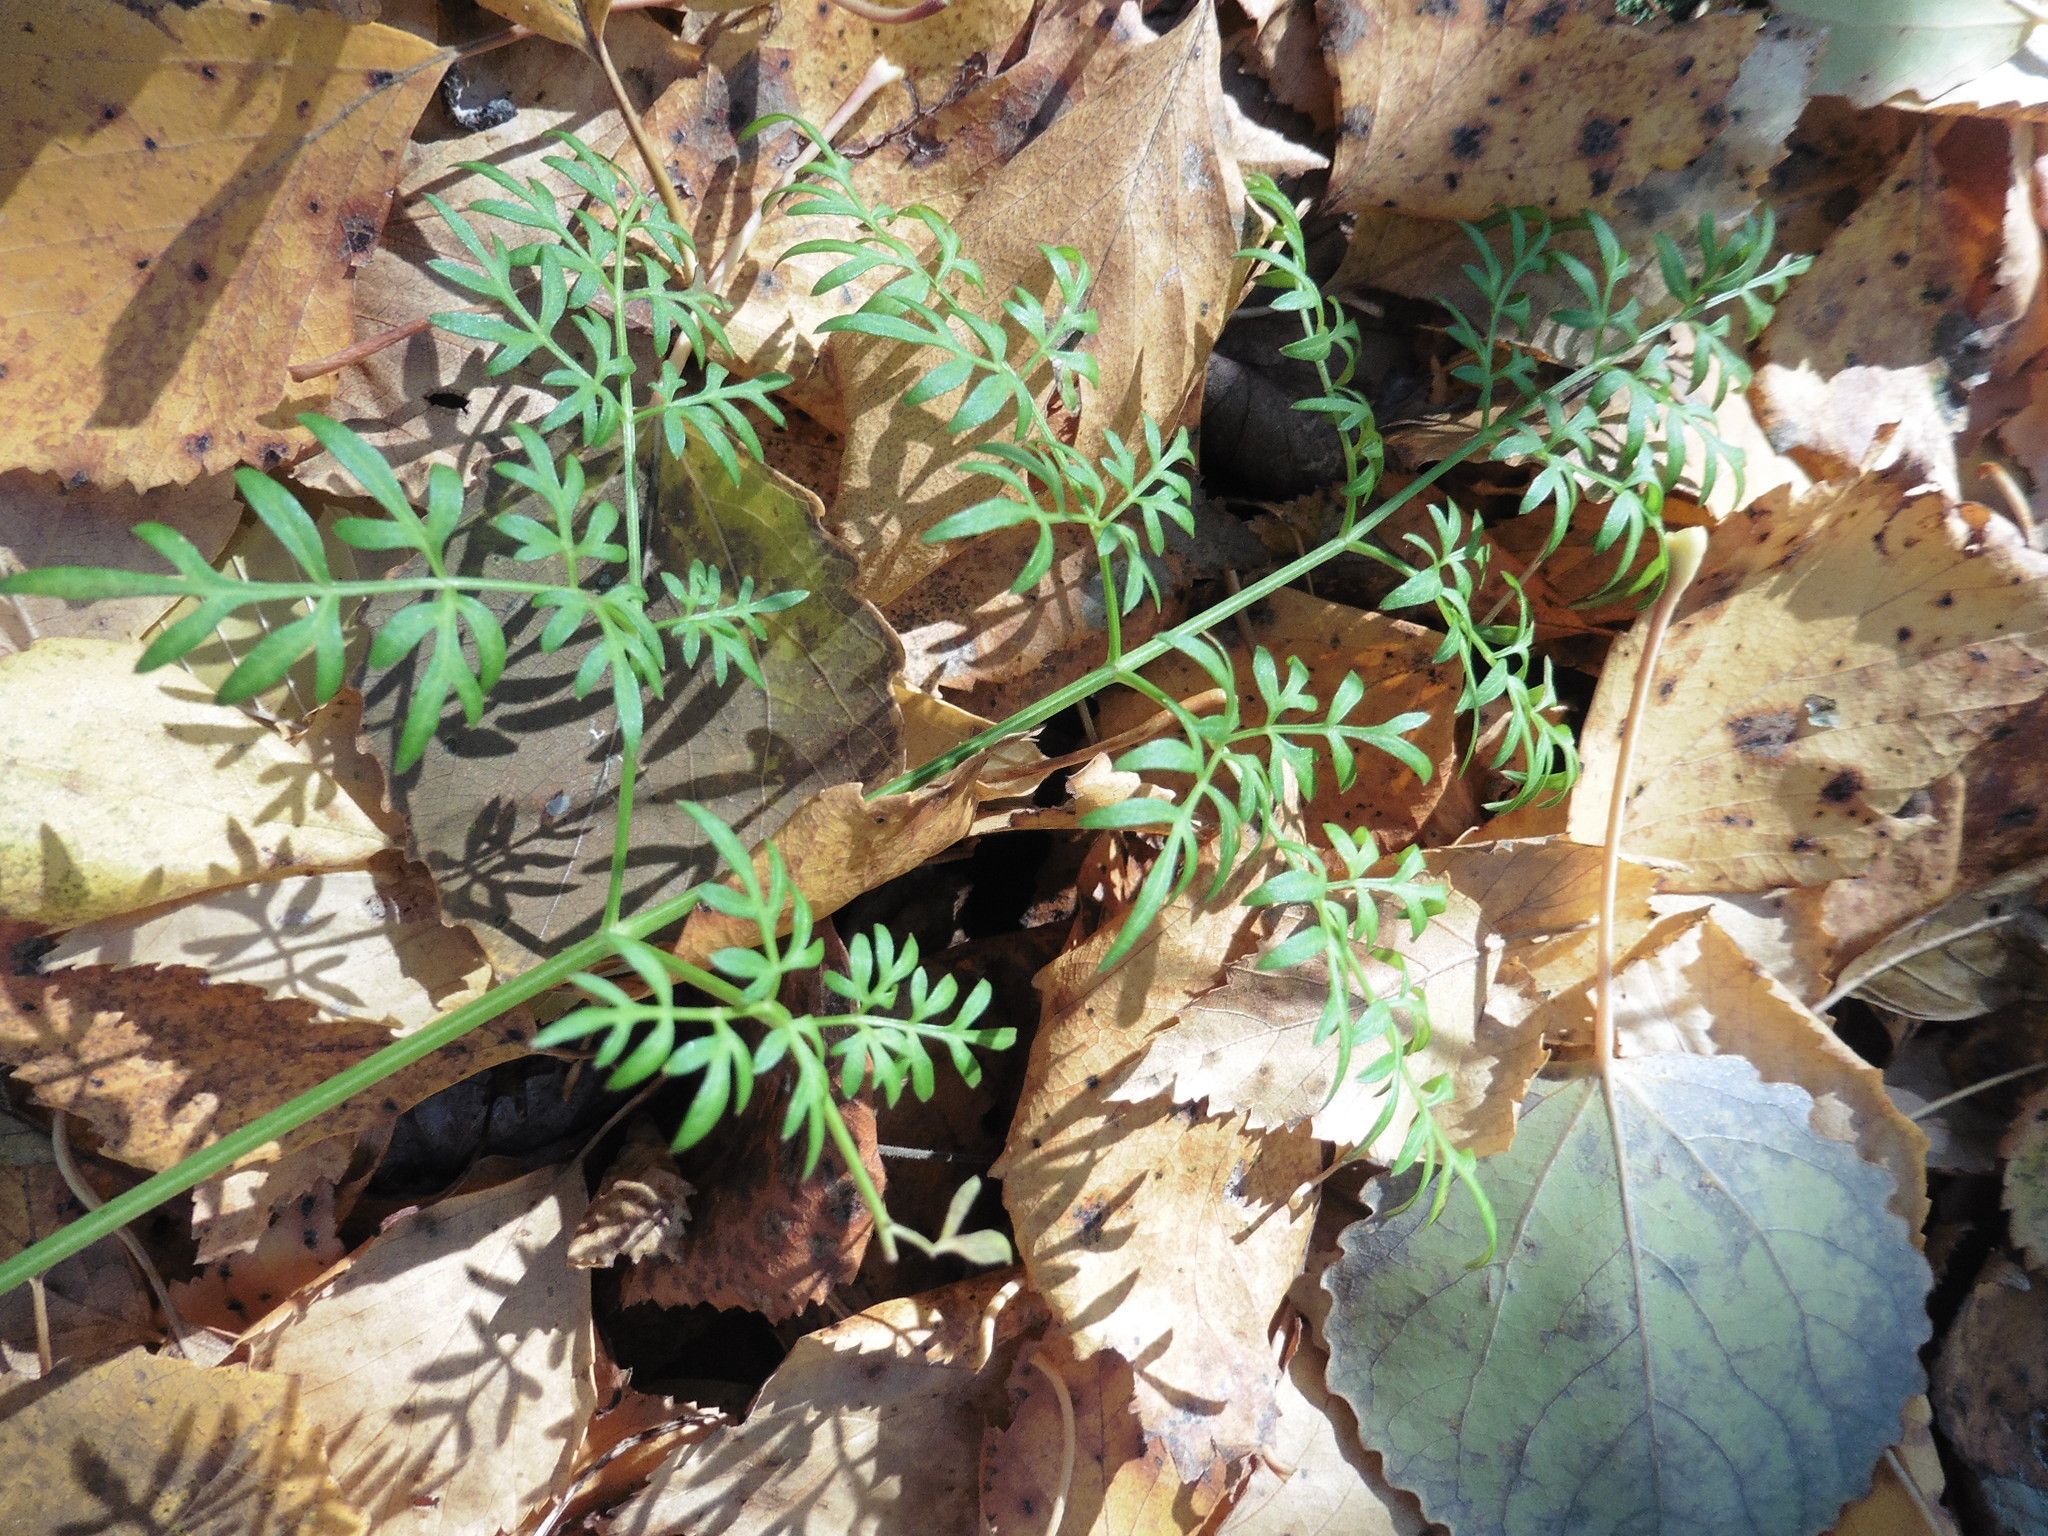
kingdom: Plantae
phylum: Tracheophyta
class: Magnoliopsida
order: Apiales
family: Apiaceae
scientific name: Apiaceae
